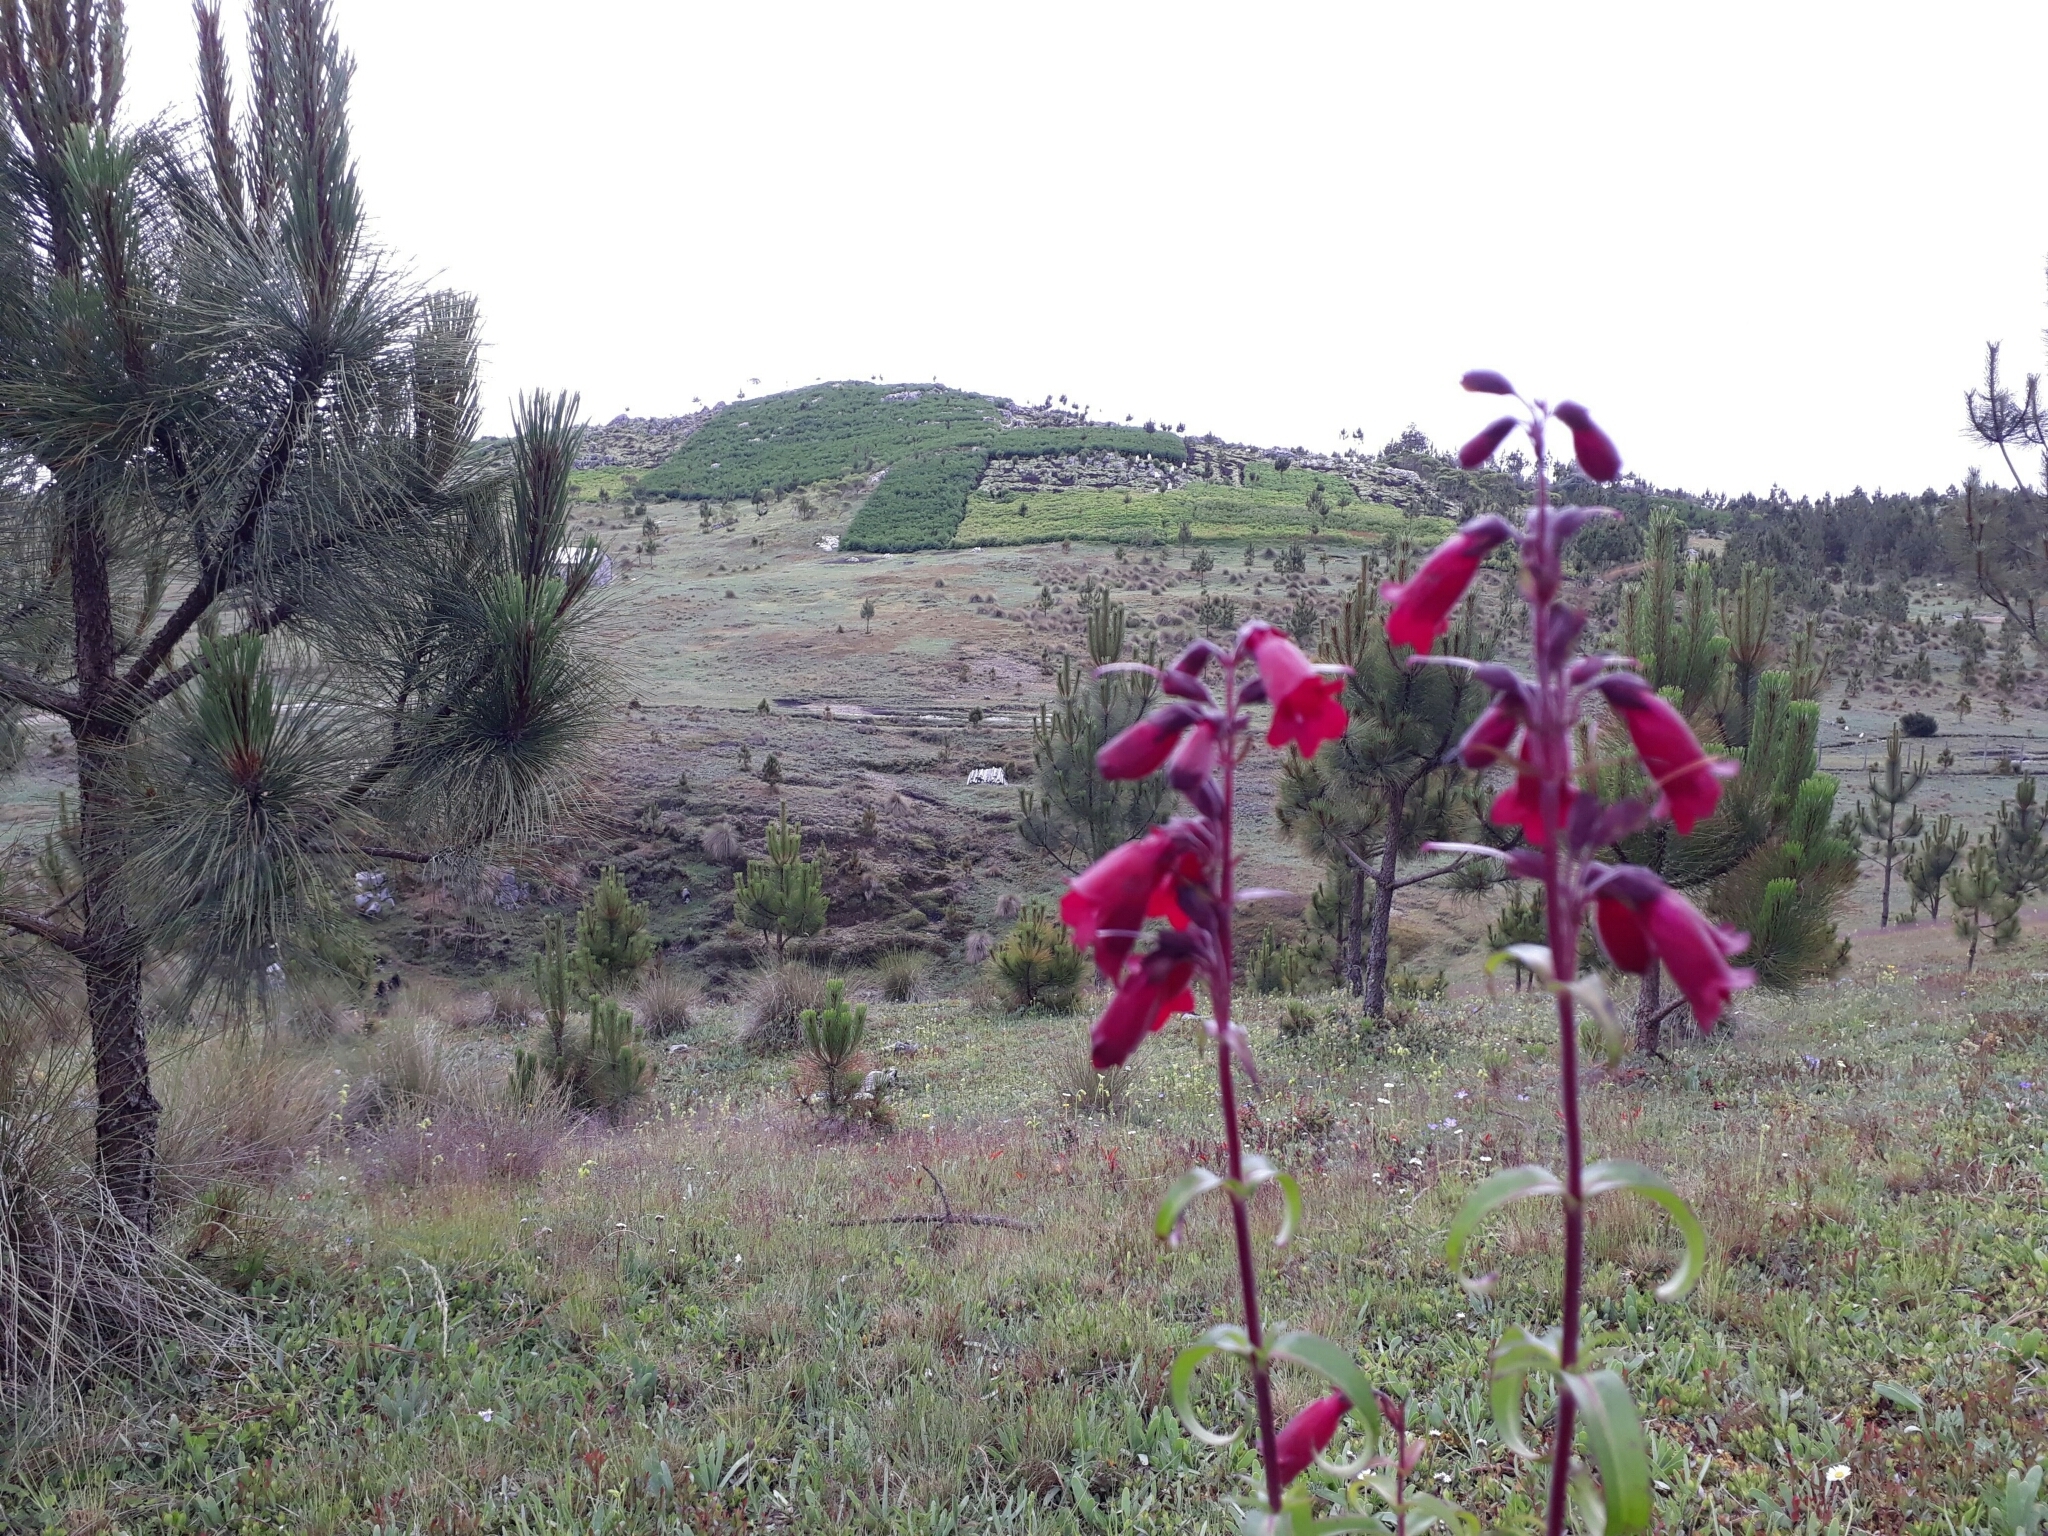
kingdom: Plantae
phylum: Tracheophyta
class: Magnoliopsida
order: Lamiales
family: Plantaginaceae
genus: Penstemon
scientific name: Penstemon gentianoides
